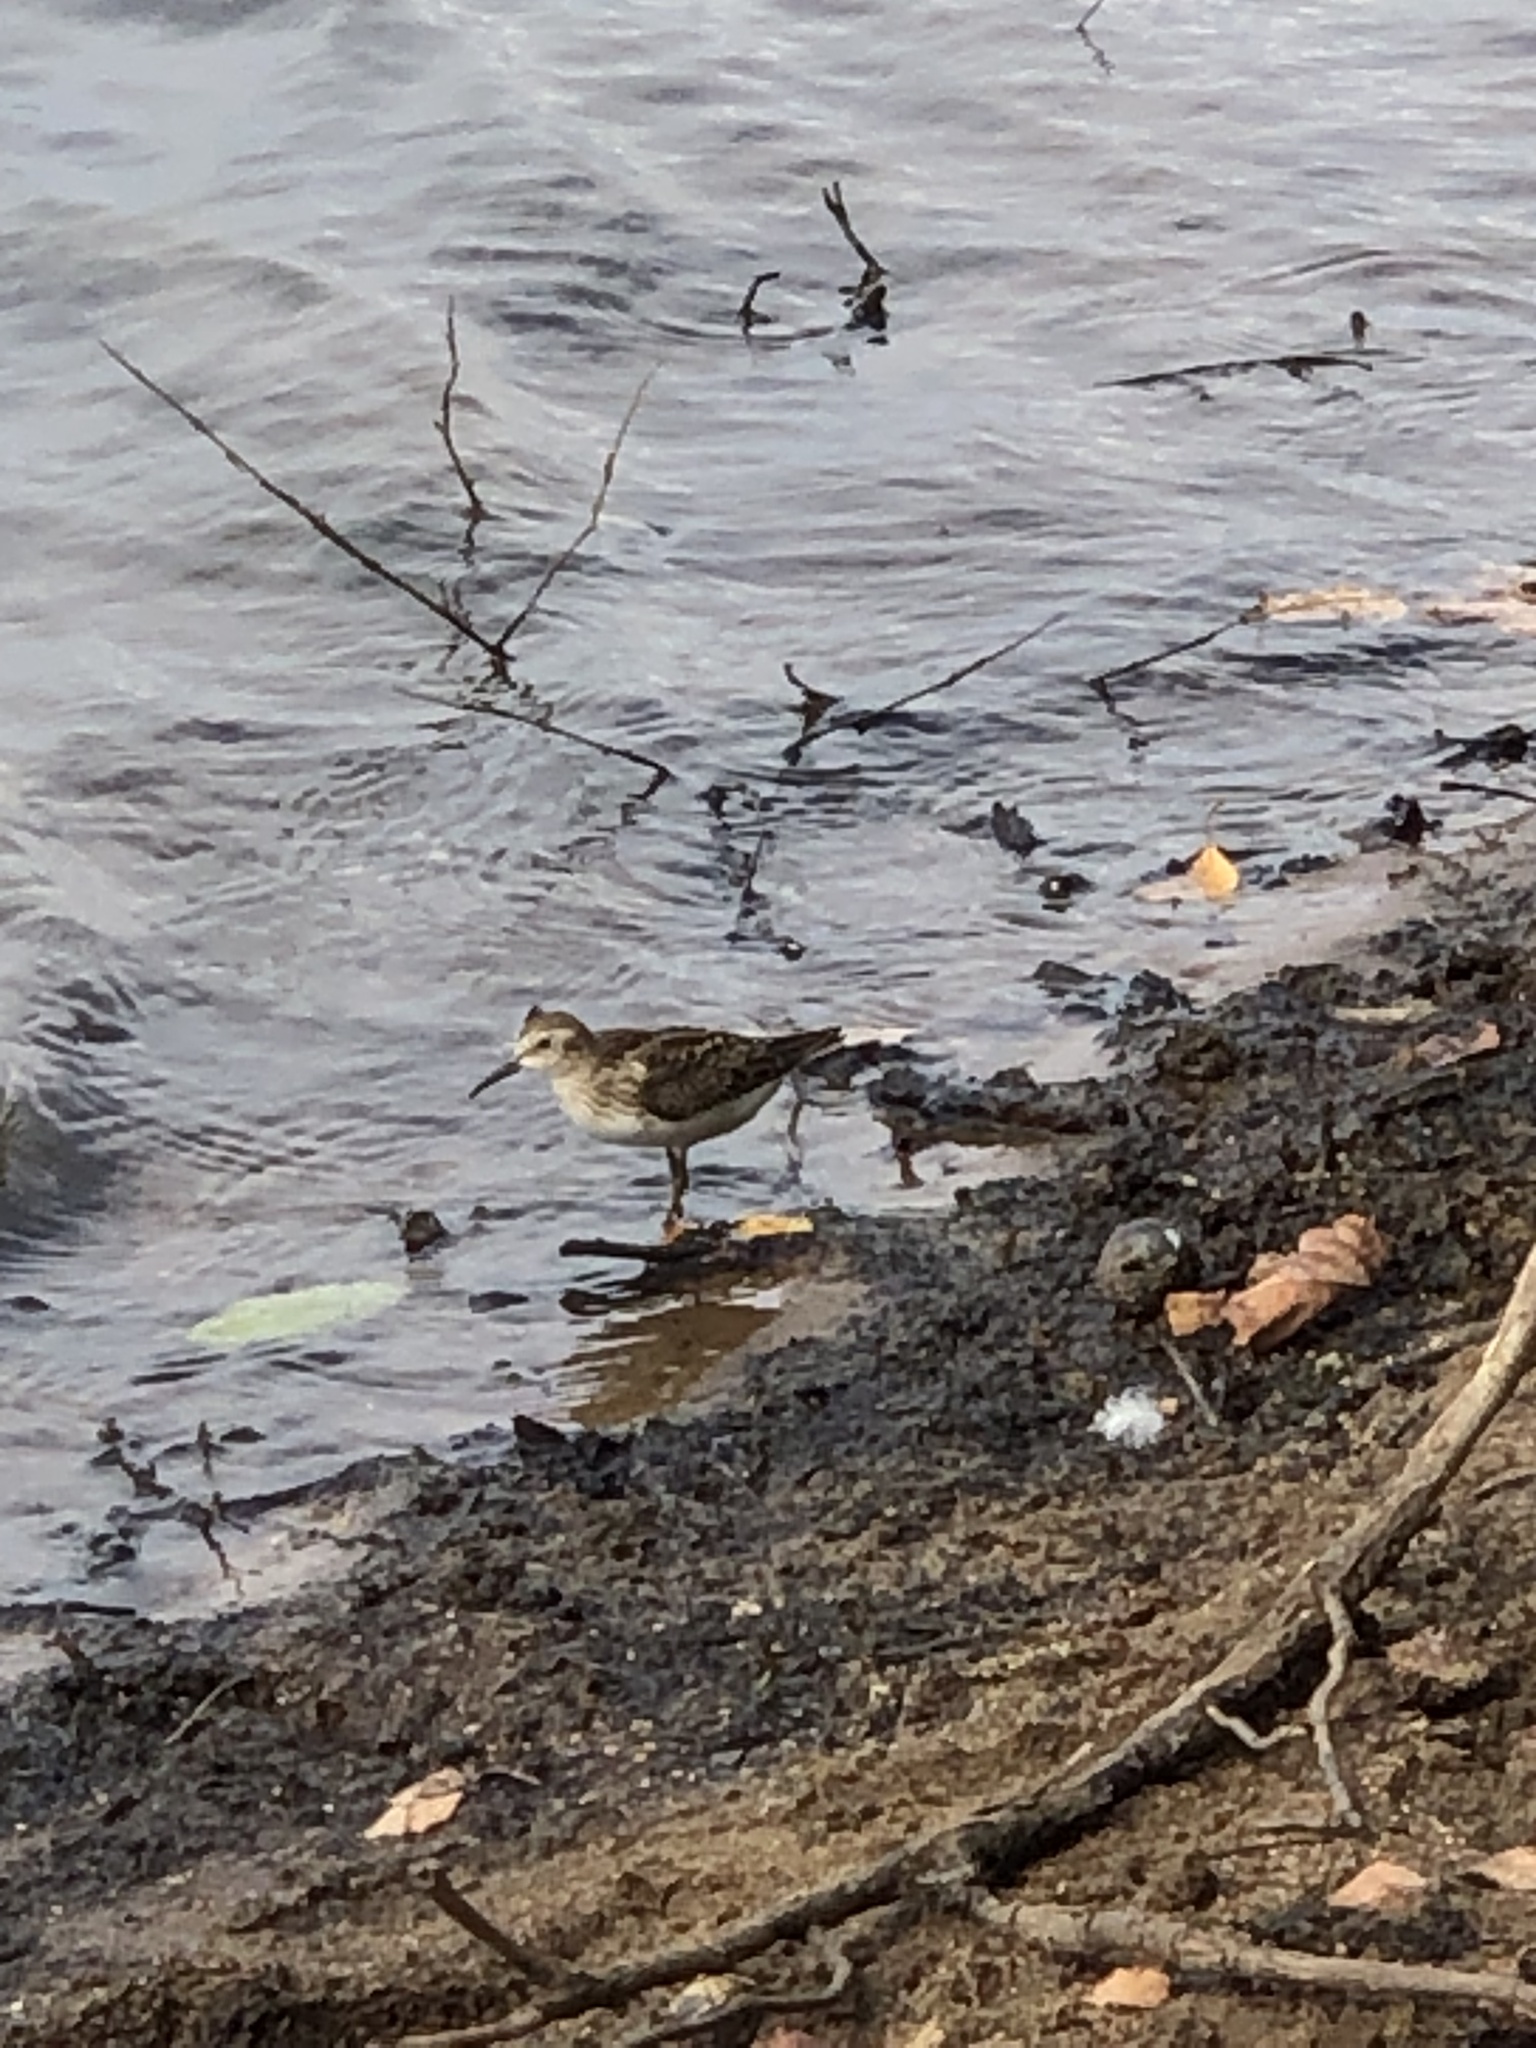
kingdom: Animalia
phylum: Chordata
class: Aves
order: Charadriiformes
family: Scolopacidae
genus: Calidris
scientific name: Calidris minutilla
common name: Least sandpiper
